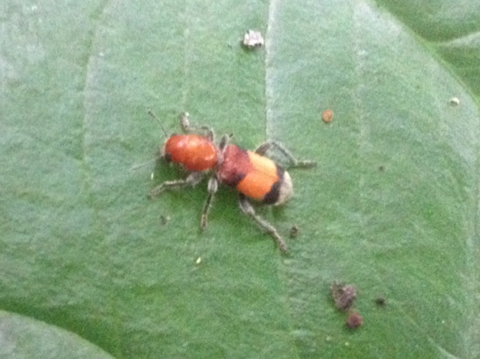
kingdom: Animalia
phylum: Arthropoda
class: Insecta
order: Coleoptera
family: Cleridae
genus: Enoclerus
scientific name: Enoclerus ichneumoneus
